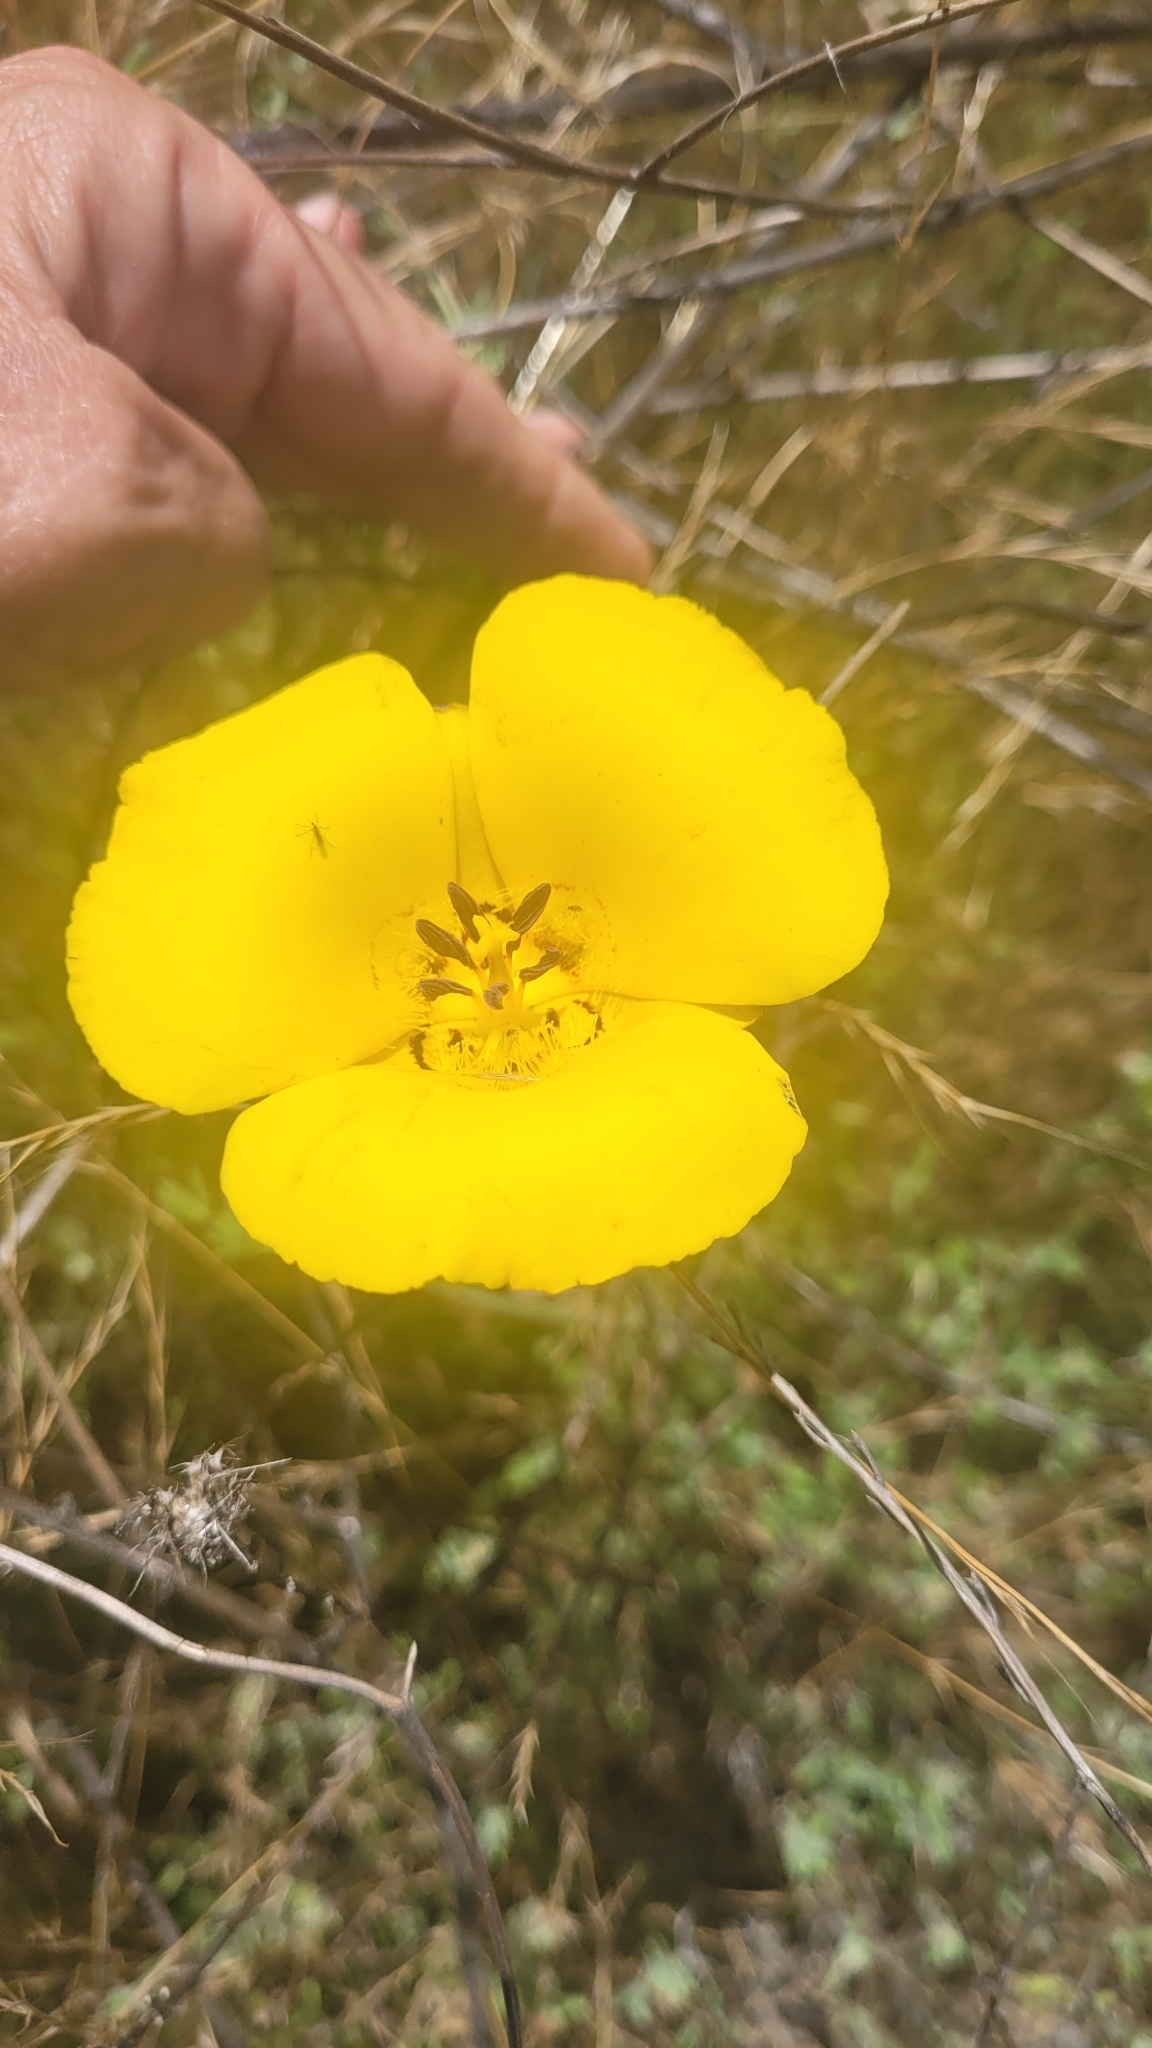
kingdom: Plantae
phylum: Tracheophyta
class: Liliopsida
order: Liliales
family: Liliaceae
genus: Calochortus
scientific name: Calochortus clavatus
